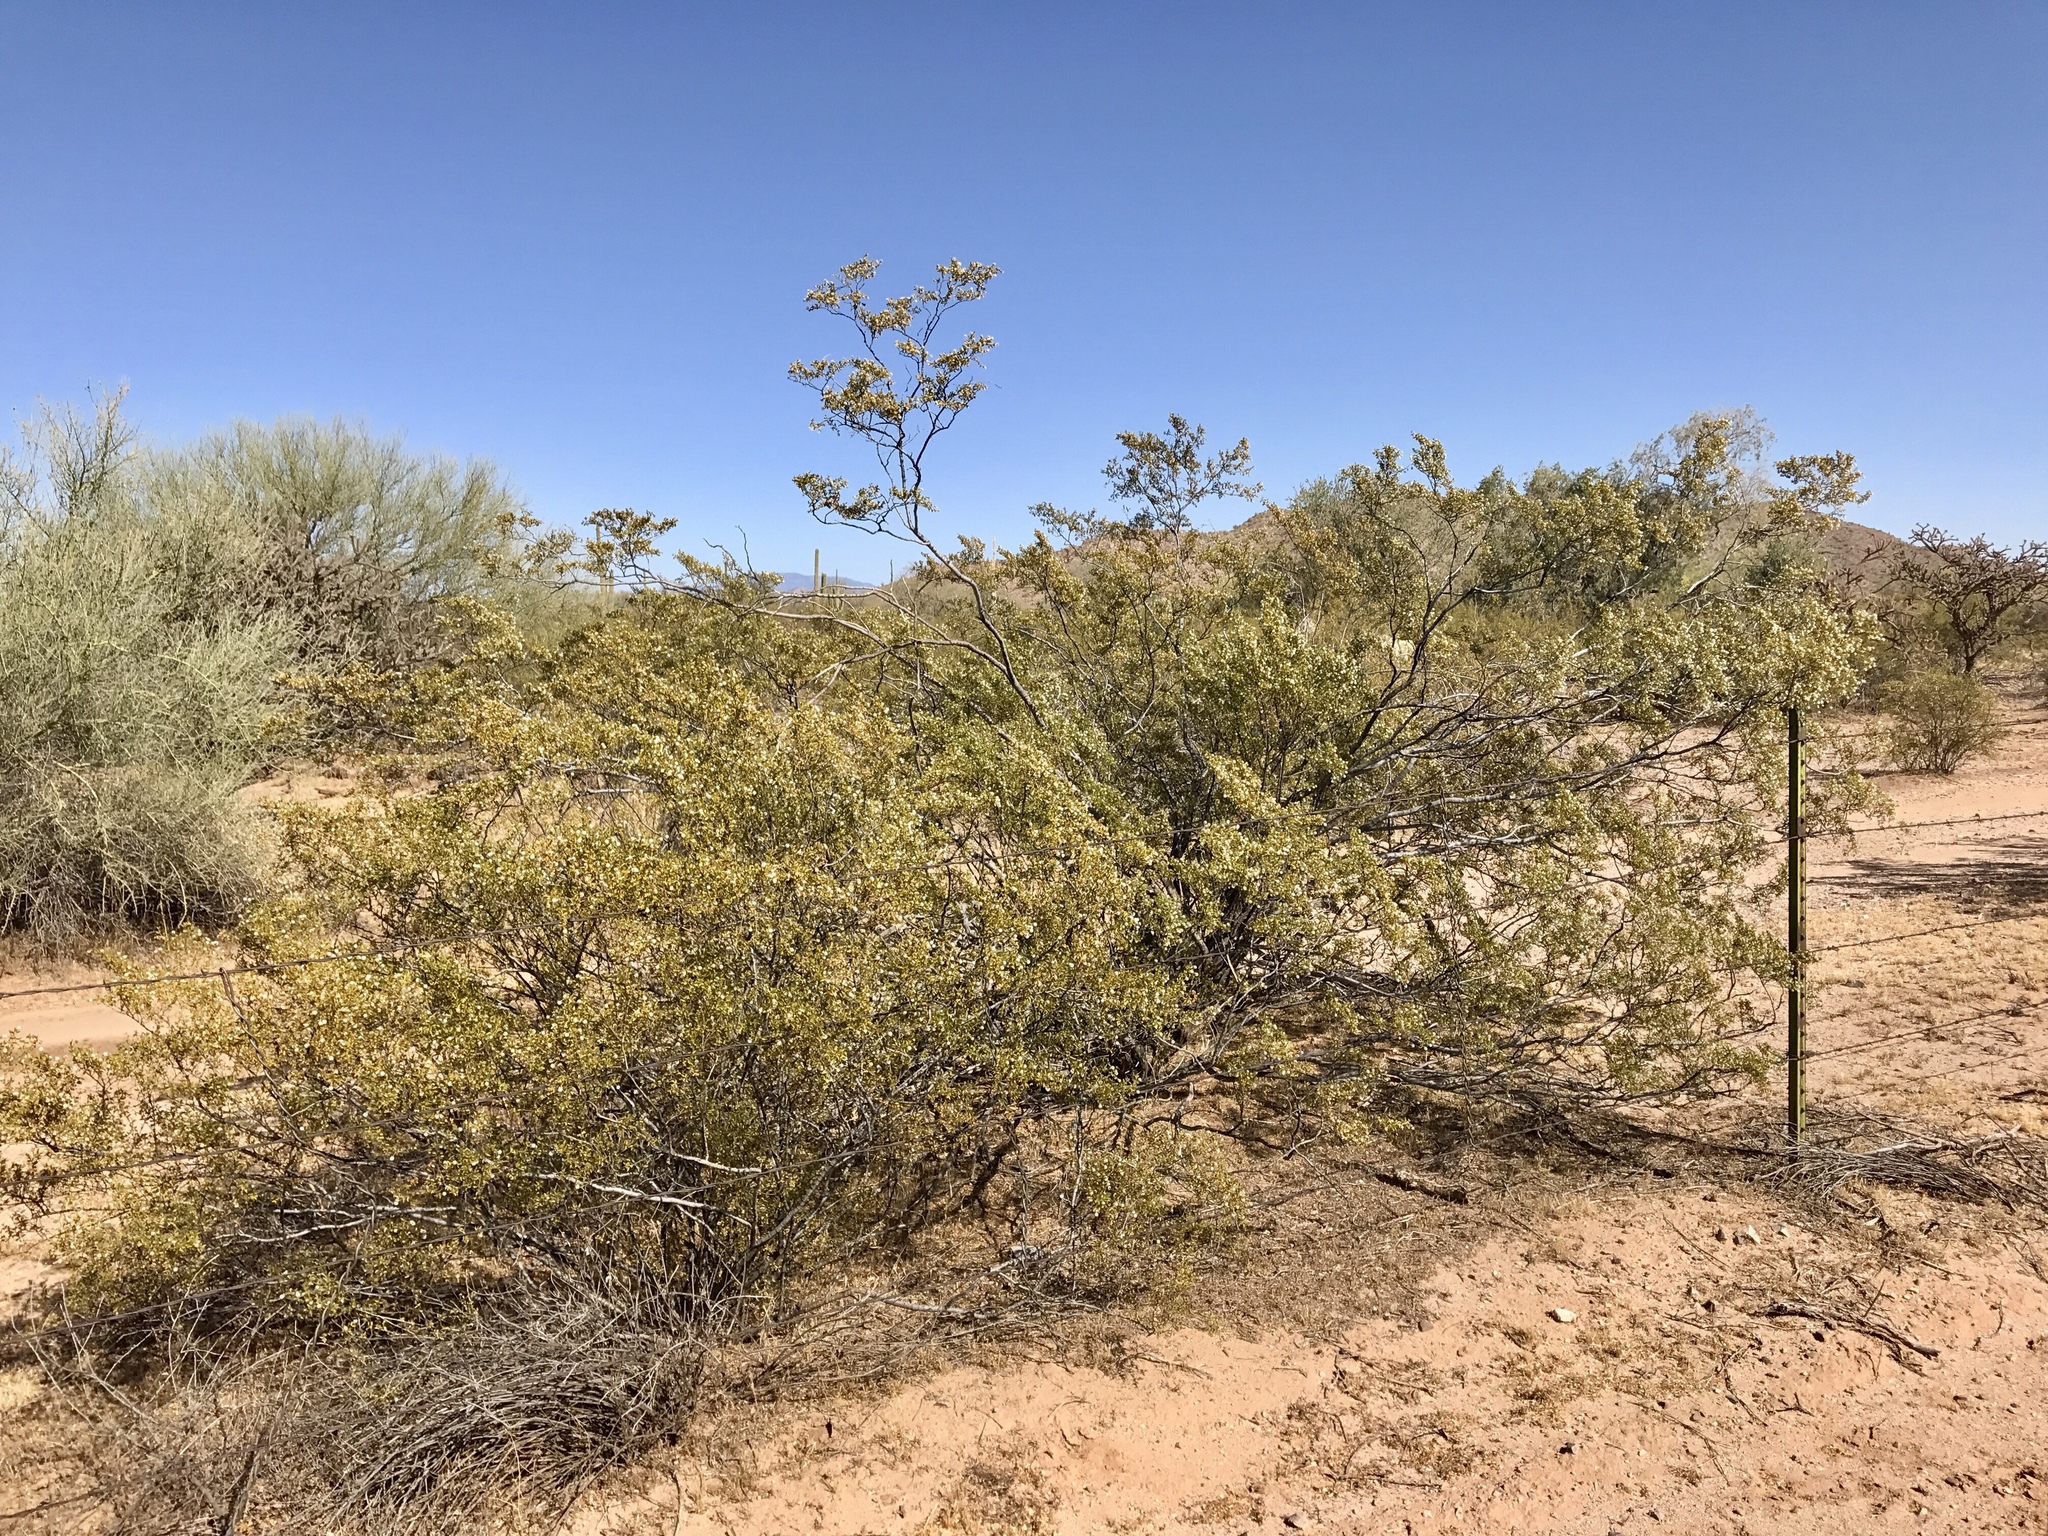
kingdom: Plantae
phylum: Tracheophyta
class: Magnoliopsida
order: Zygophyllales
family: Zygophyllaceae
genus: Larrea
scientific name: Larrea tridentata
